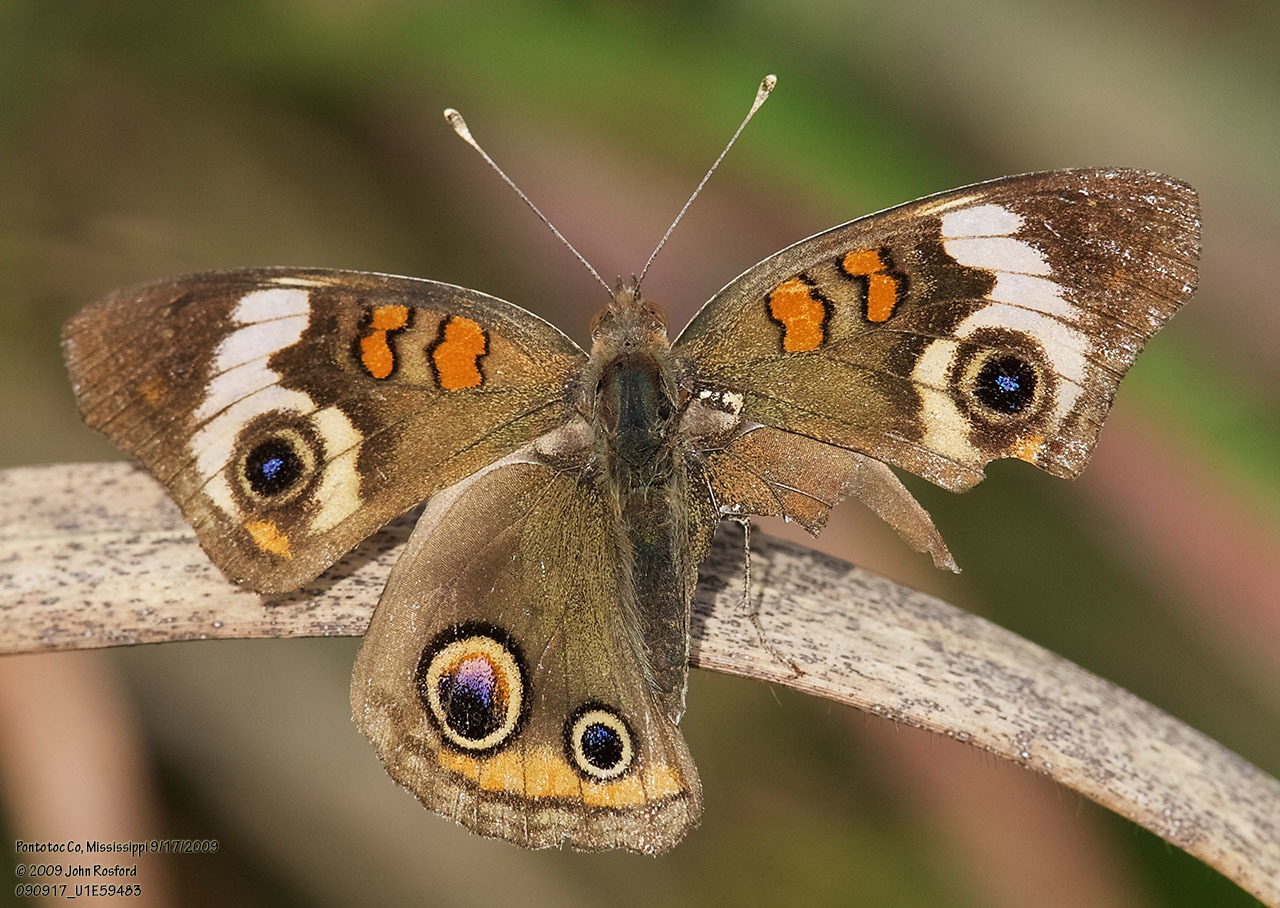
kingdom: Animalia
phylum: Arthropoda
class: Insecta
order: Lepidoptera
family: Nymphalidae
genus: Junonia
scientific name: Junonia coenia
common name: Common buckeye
